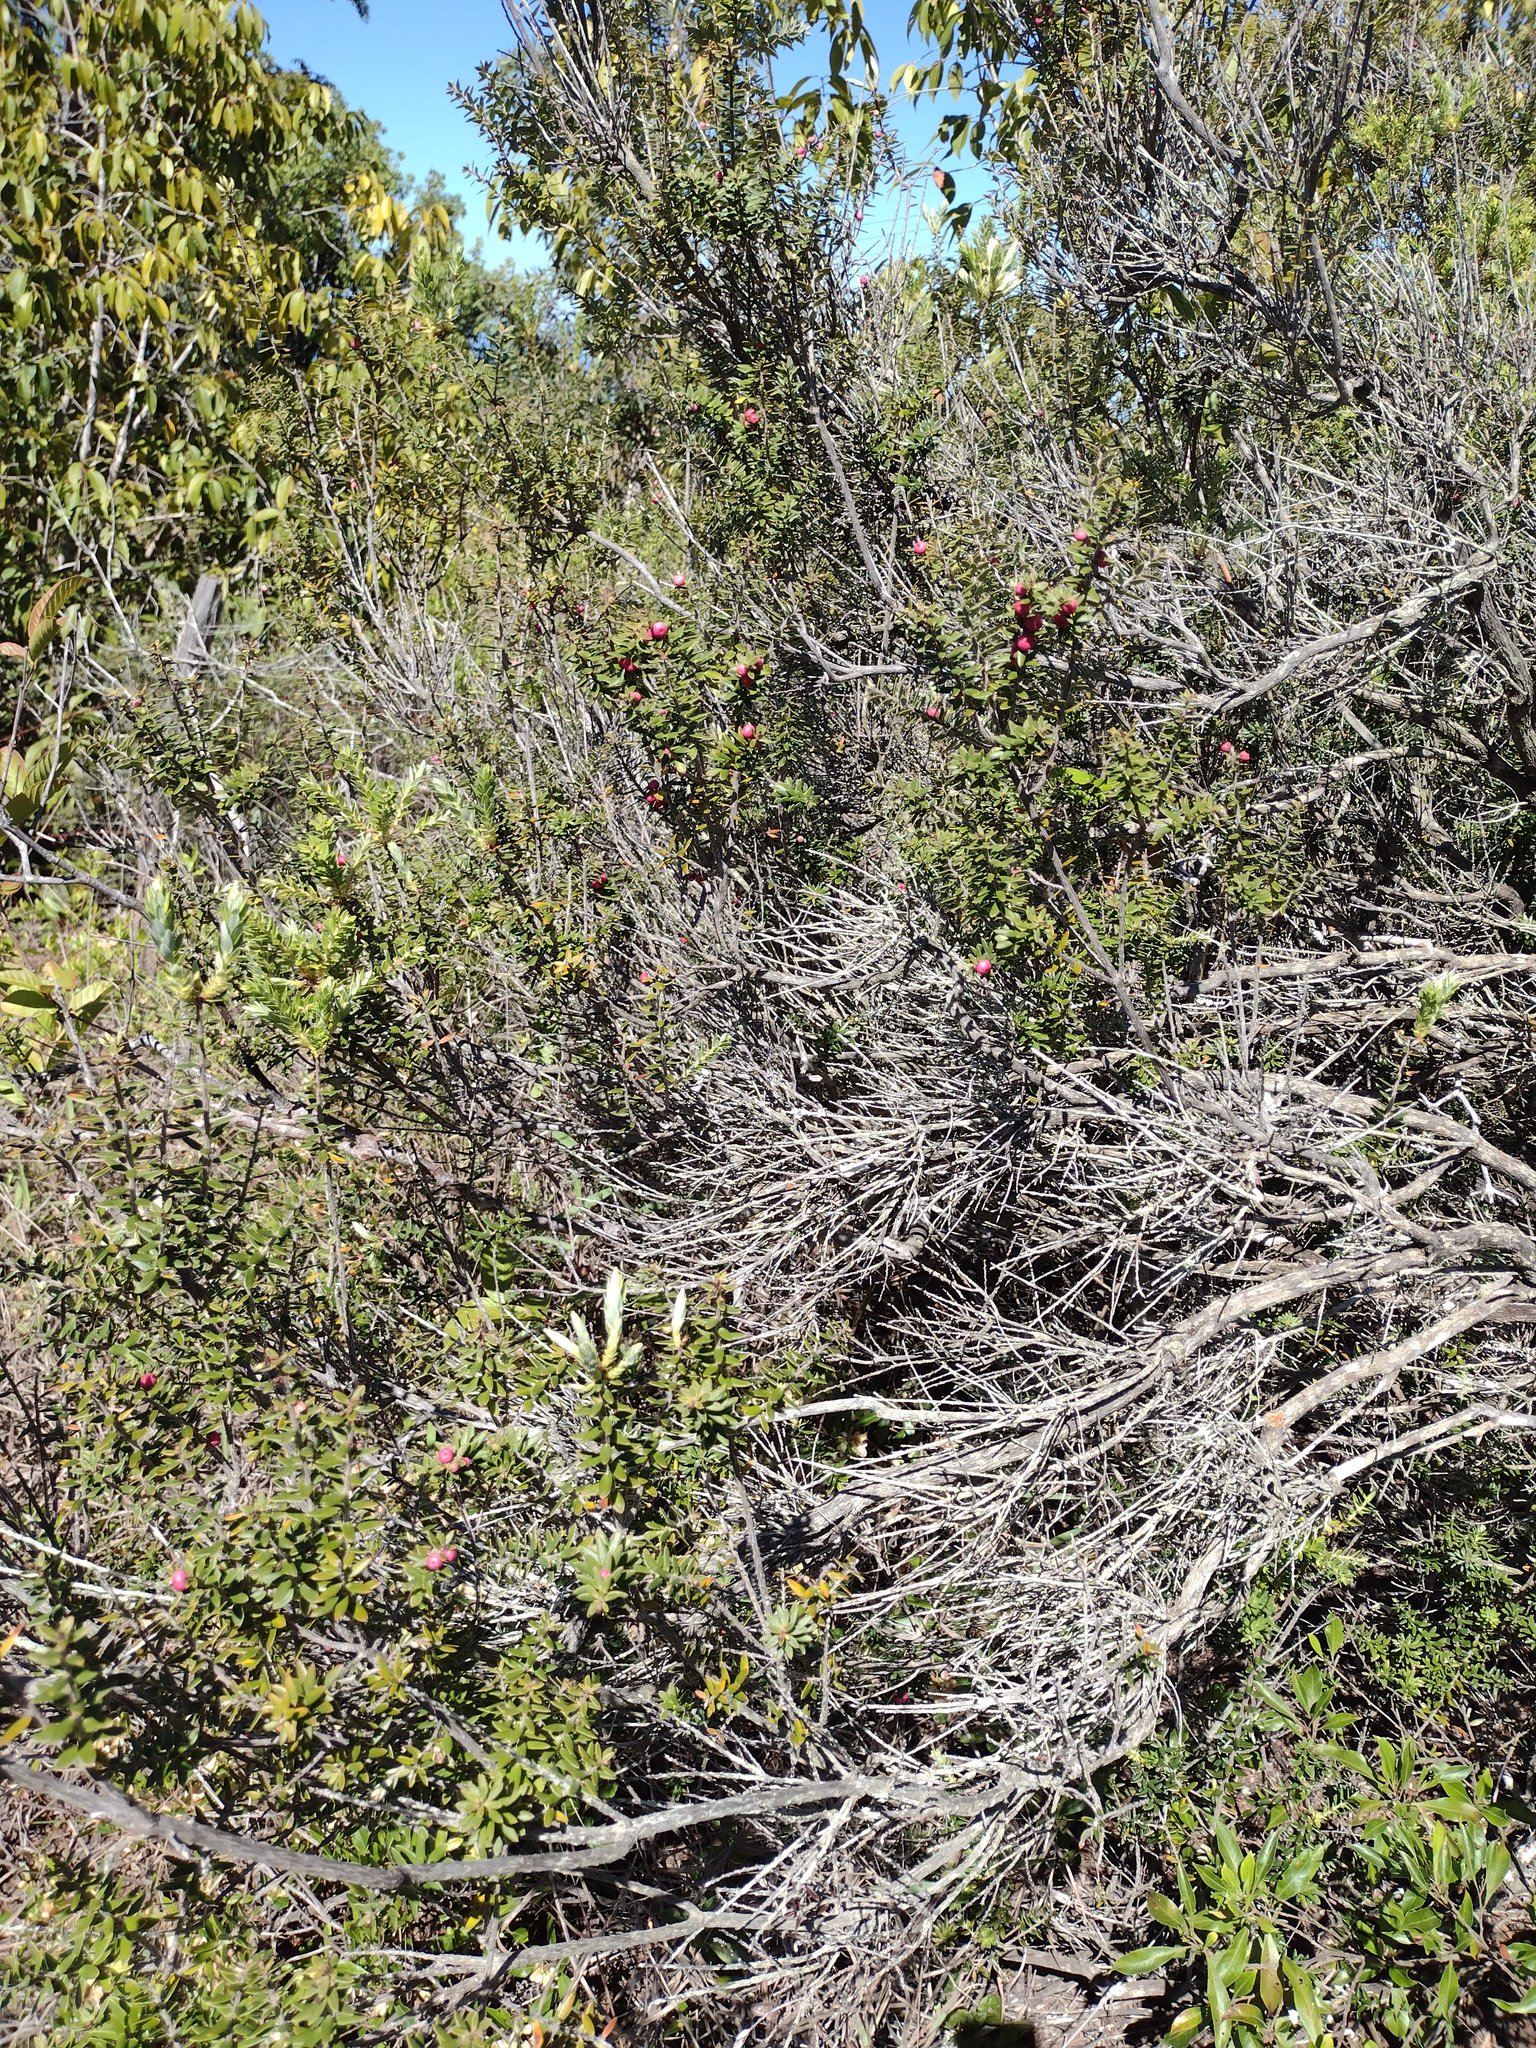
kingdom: Plantae
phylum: Tracheophyta
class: Magnoliopsida
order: Ericales
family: Ericaceae
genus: Leptecophylla
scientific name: Leptecophylla tameiameiae
